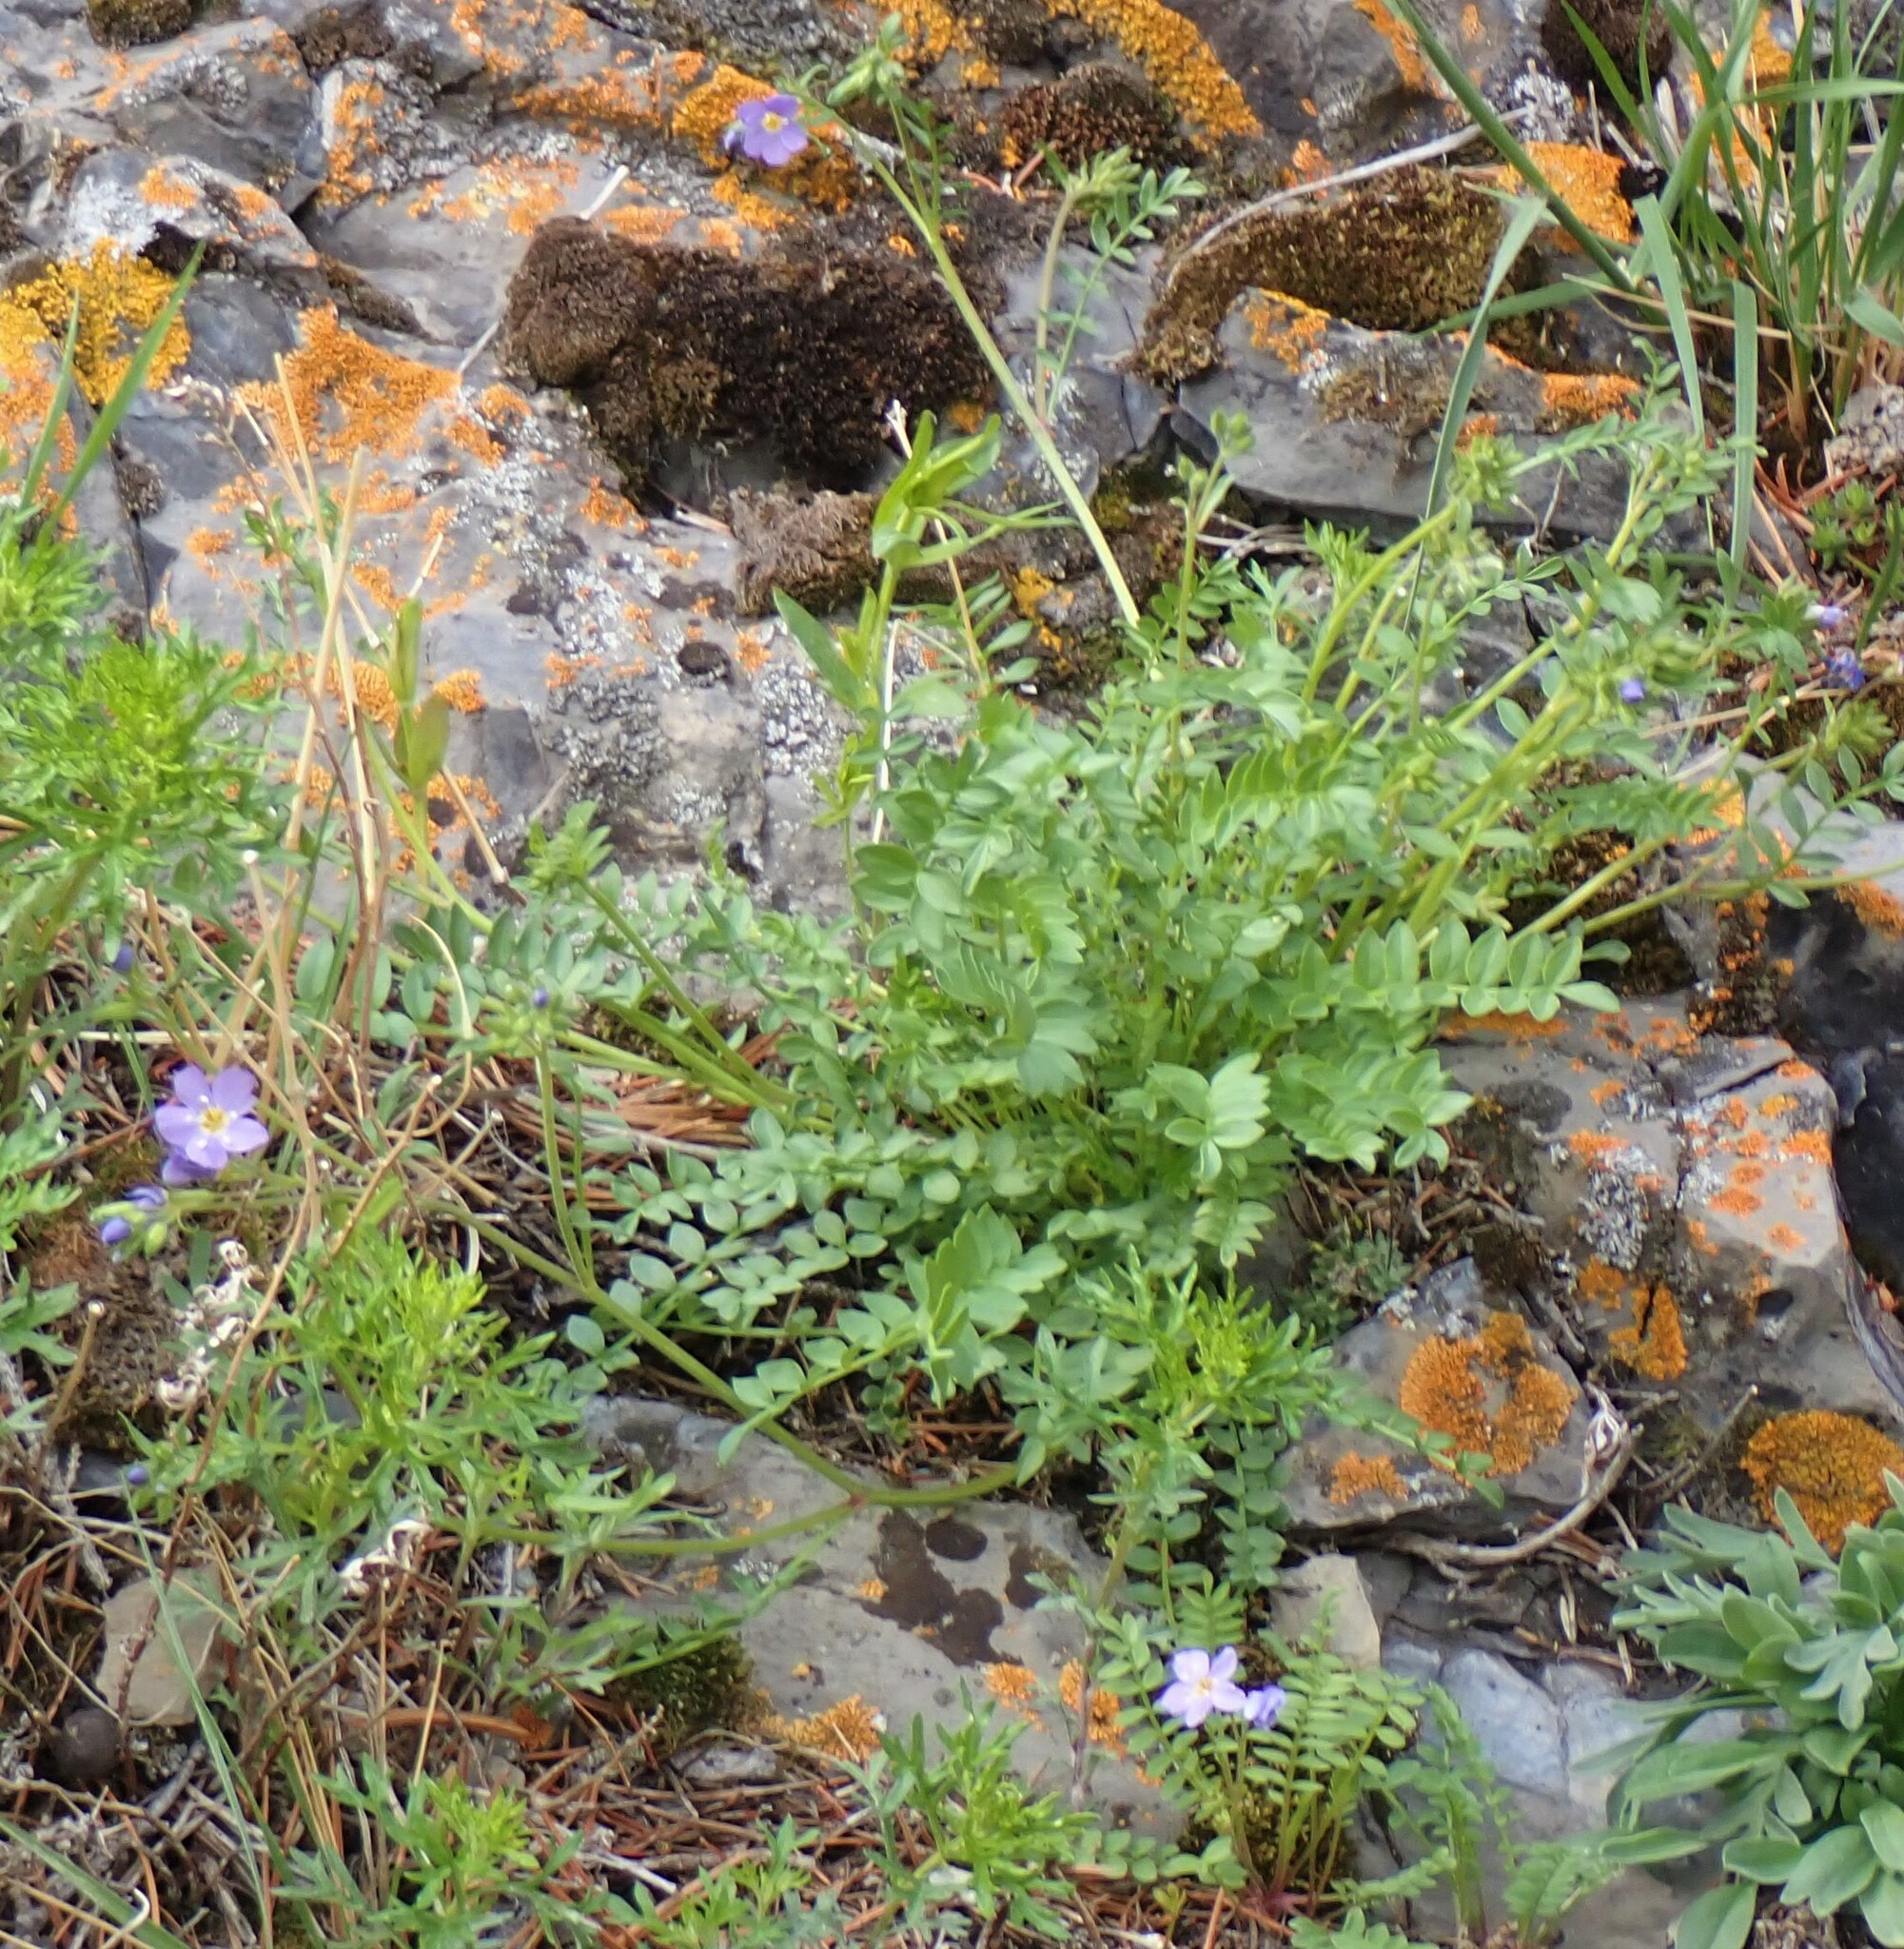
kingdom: Plantae
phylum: Tracheophyta
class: Magnoliopsida
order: Ericales
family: Polemoniaceae
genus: Polemonium
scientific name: Polemonium pulcherrimum
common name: Short jacob's-ladder
